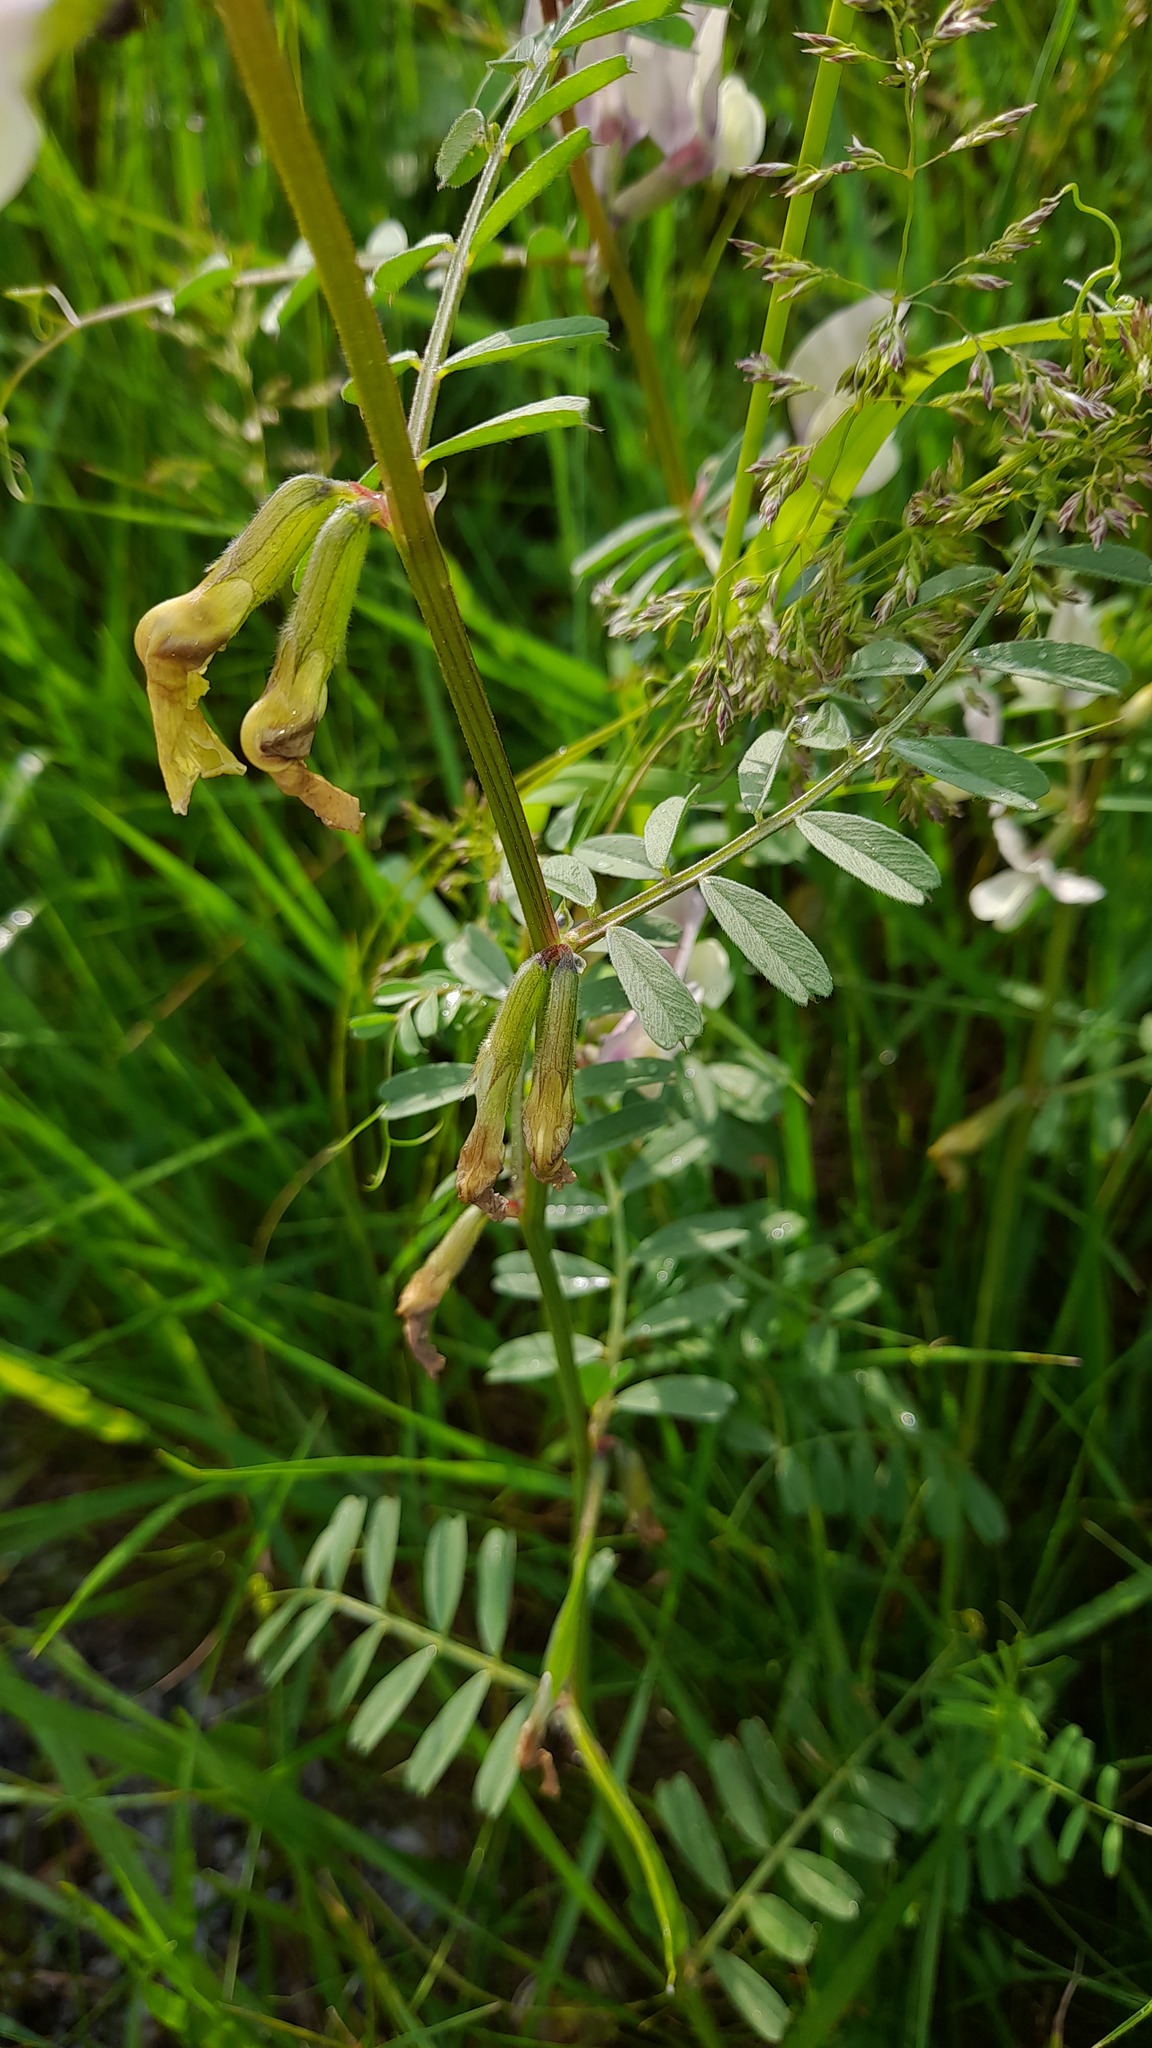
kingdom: Plantae
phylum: Tracheophyta
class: Magnoliopsida
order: Fabales
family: Fabaceae
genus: Vicia
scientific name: Vicia grandiflora
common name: Large yellow vetch
